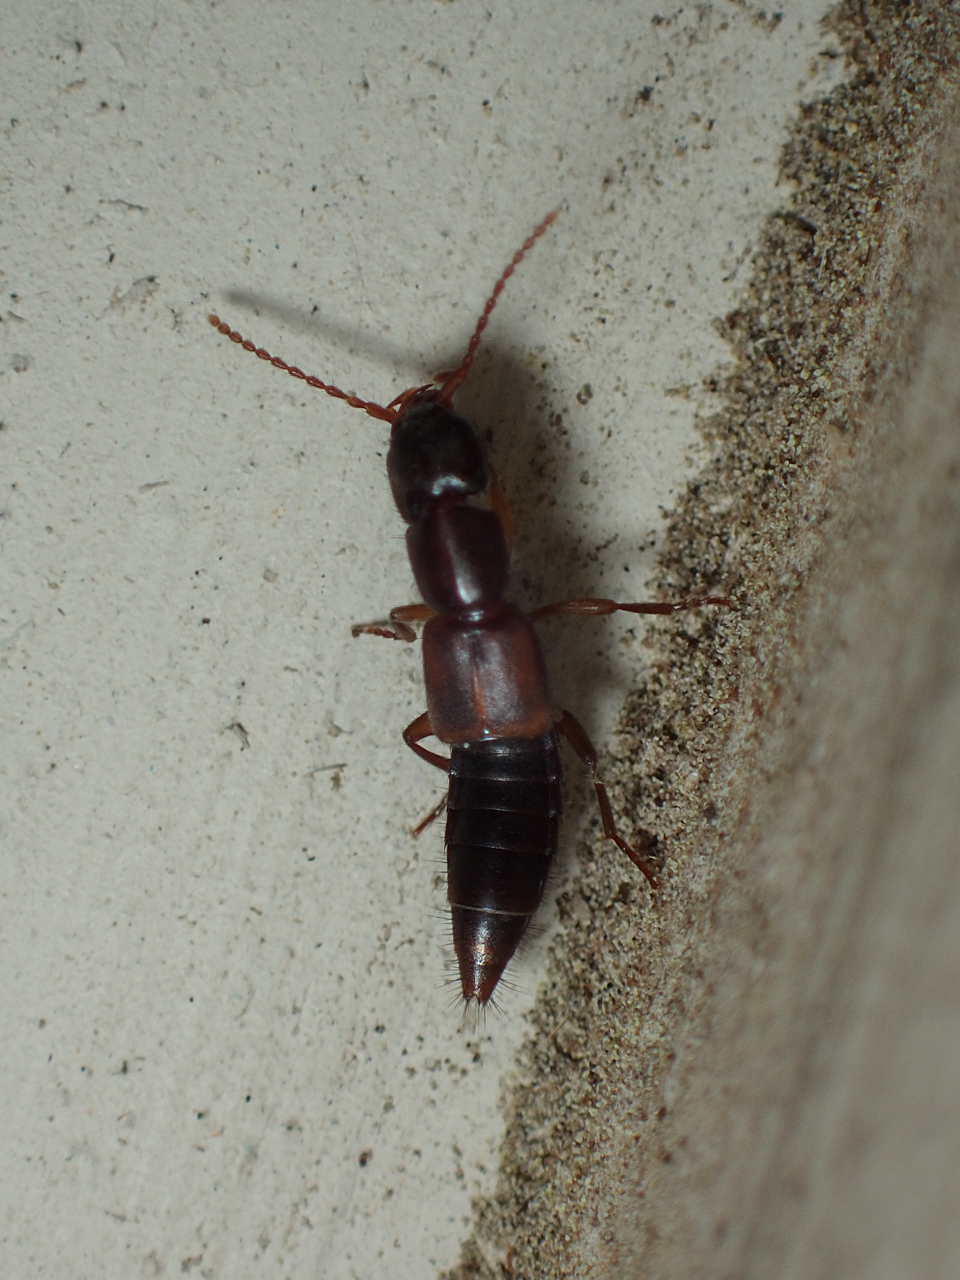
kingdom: Animalia
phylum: Arthropoda
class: Insecta
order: Coleoptera
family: Staphylinidae
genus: Achenomorphus
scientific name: Achenomorphus corticinus
